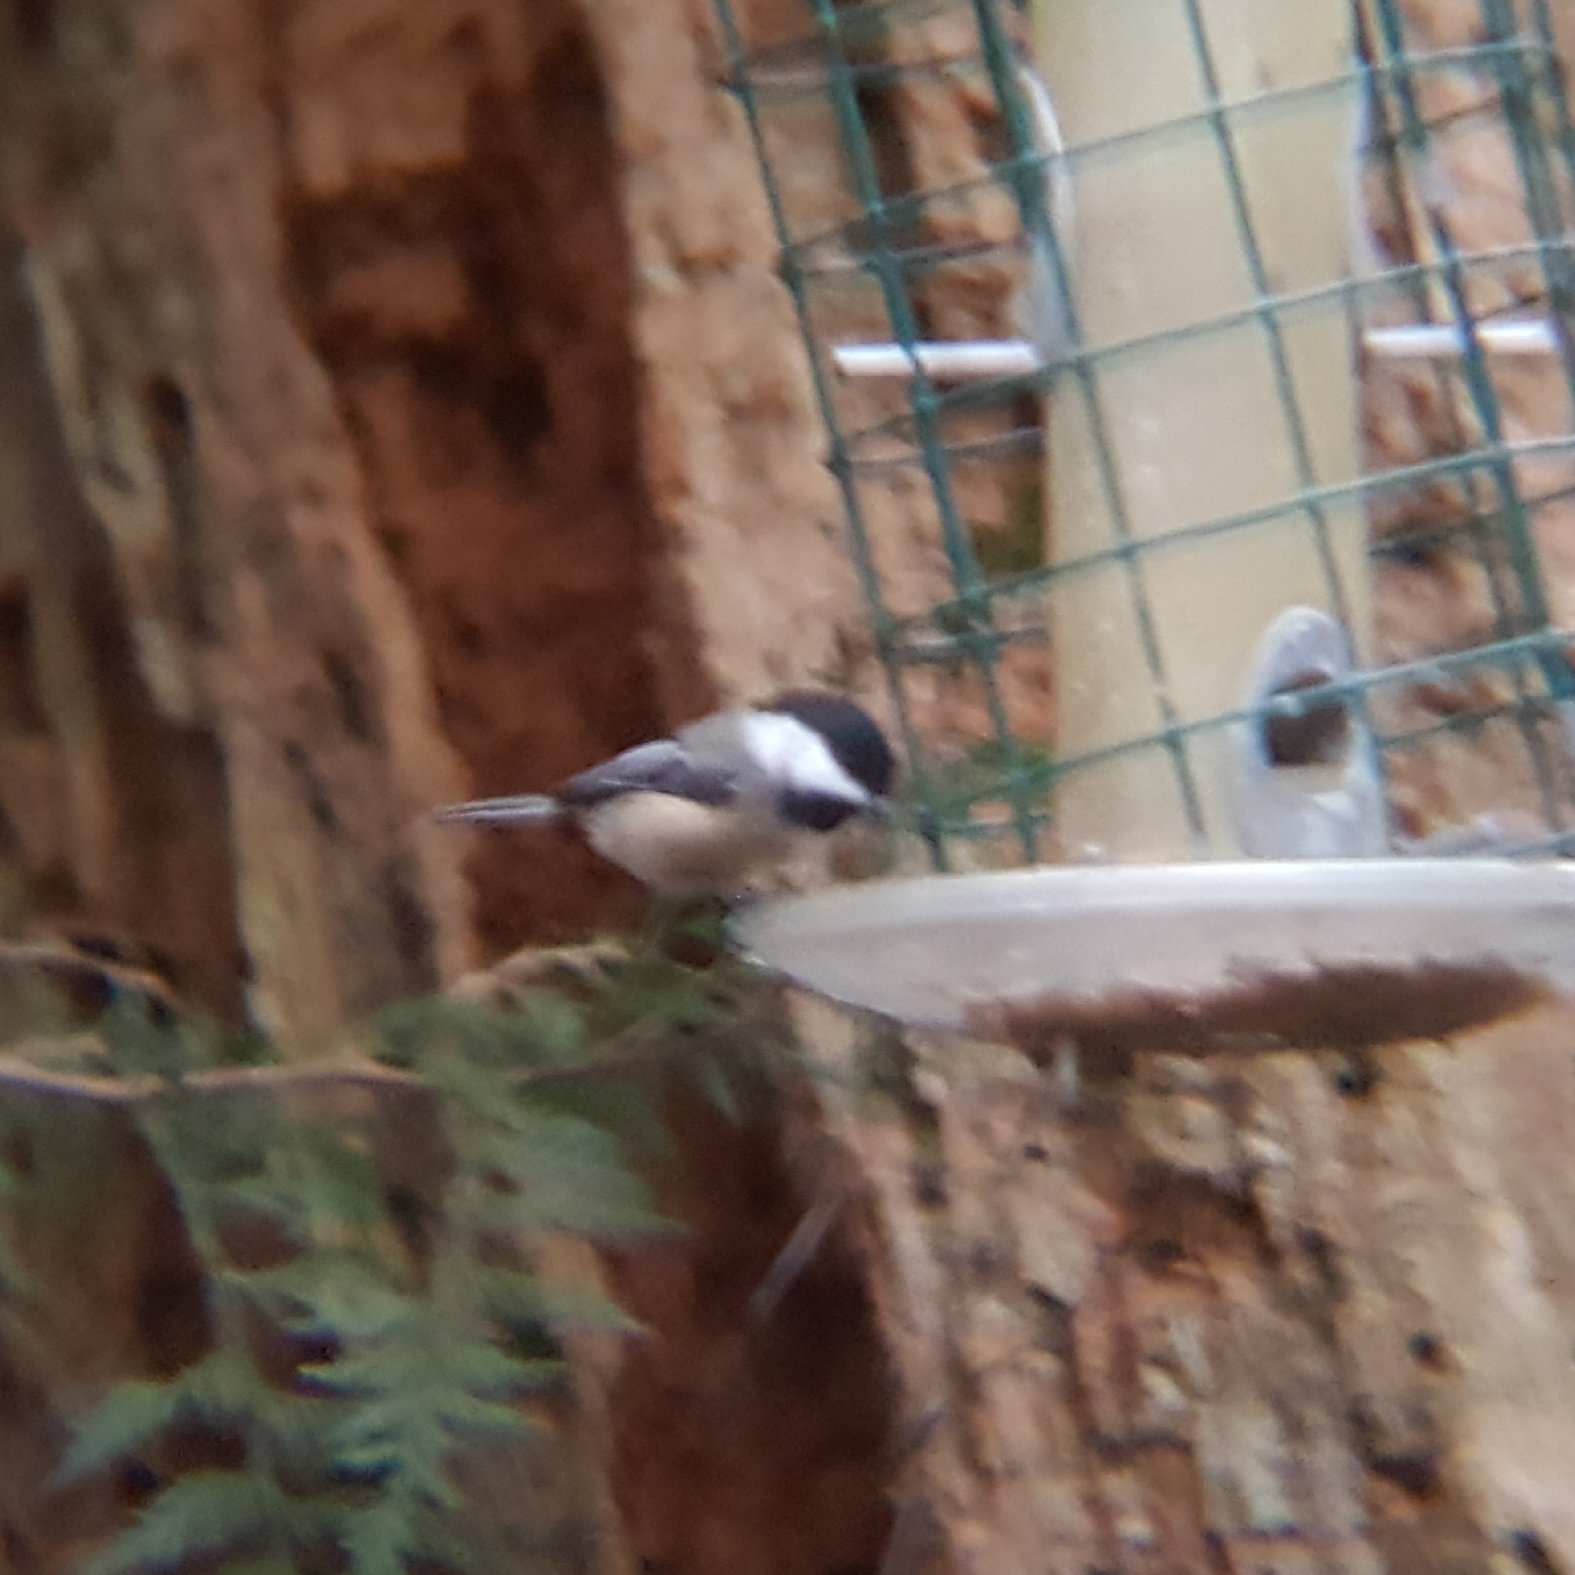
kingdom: Animalia
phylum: Chordata
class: Aves
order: Passeriformes
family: Paridae
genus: Poecile
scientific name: Poecile atricapillus
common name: Black-capped chickadee
